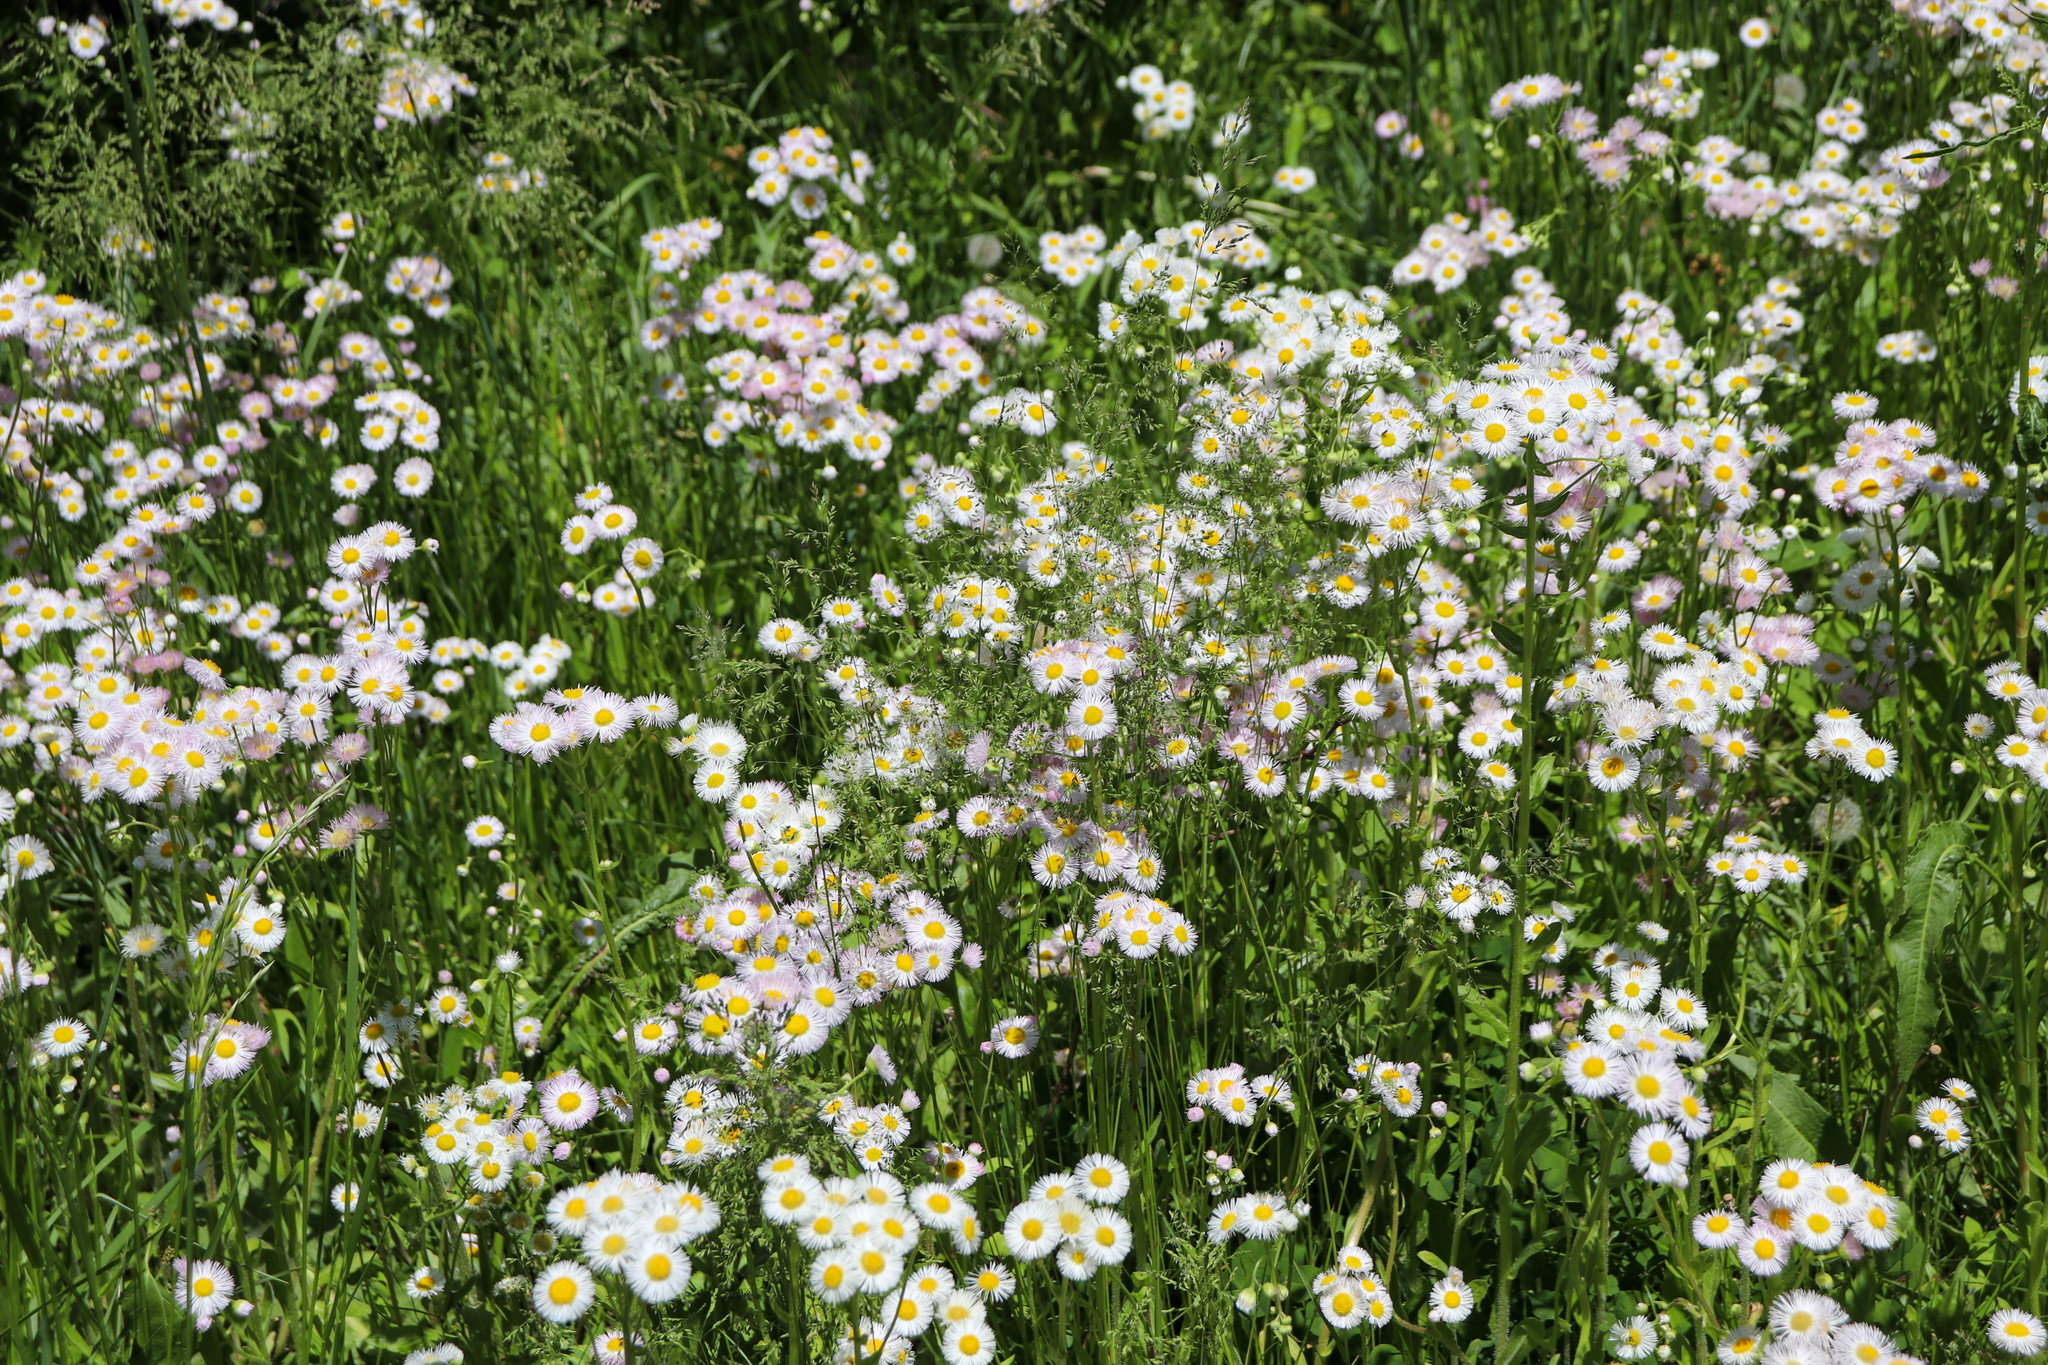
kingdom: Plantae
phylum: Tracheophyta
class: Magnoliopsida
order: Asterales
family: Asteraceae
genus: Erigeron
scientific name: Erigeron philadelphicus
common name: Robin's-plantain
